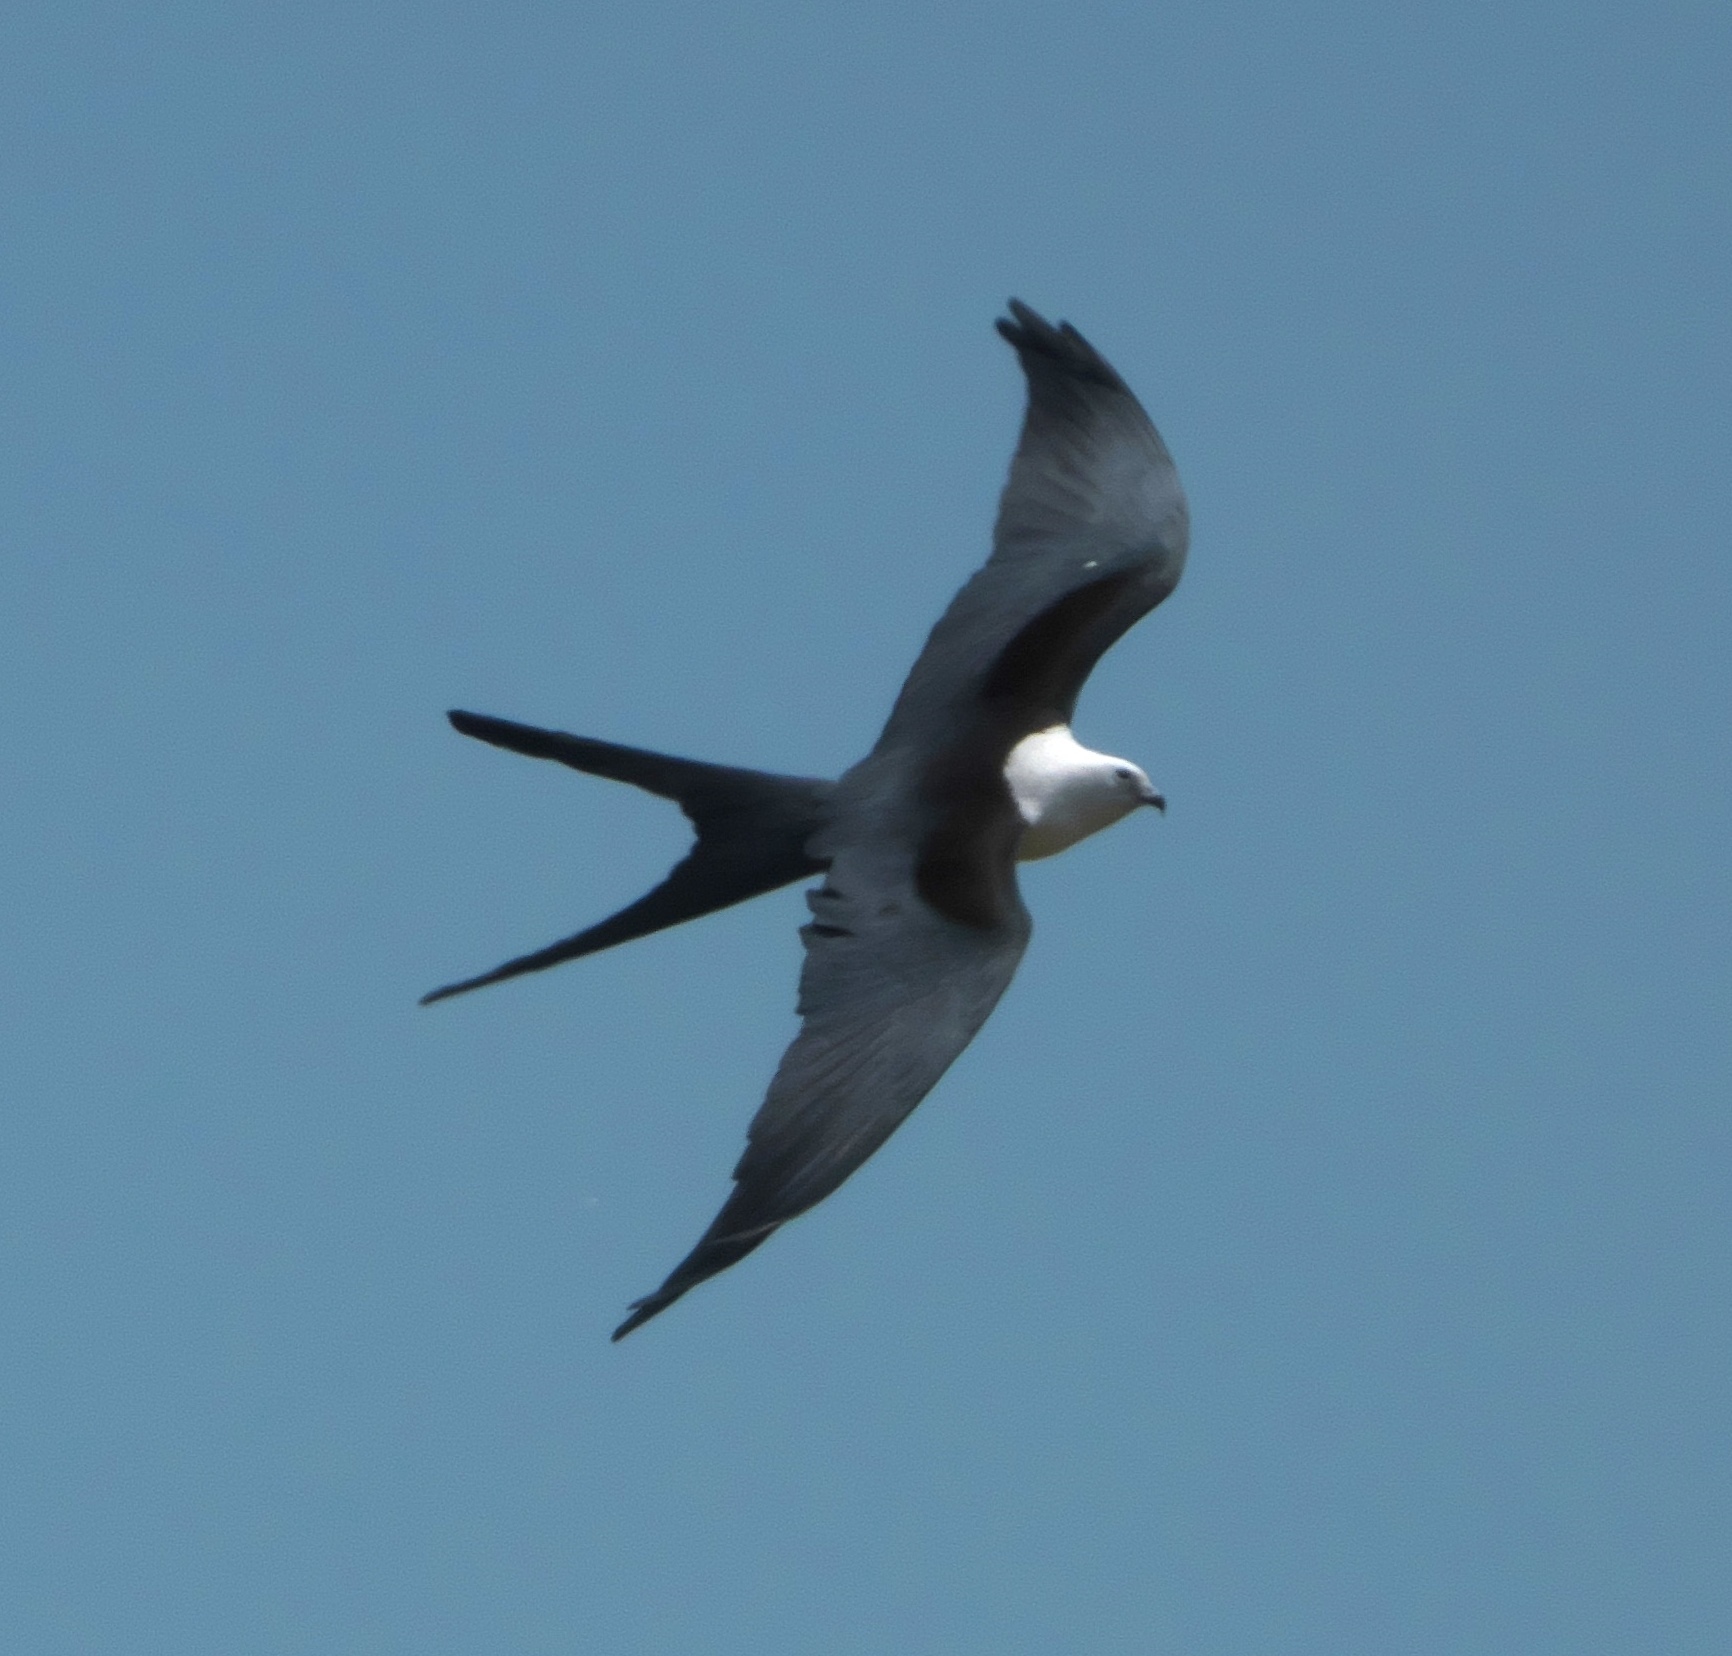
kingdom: Animalia
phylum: Chordata
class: Aves
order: Accipitriformes
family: Accipitridae
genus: Elanoides
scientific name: Elanoides forficatus
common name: Swallow-tailed kite
